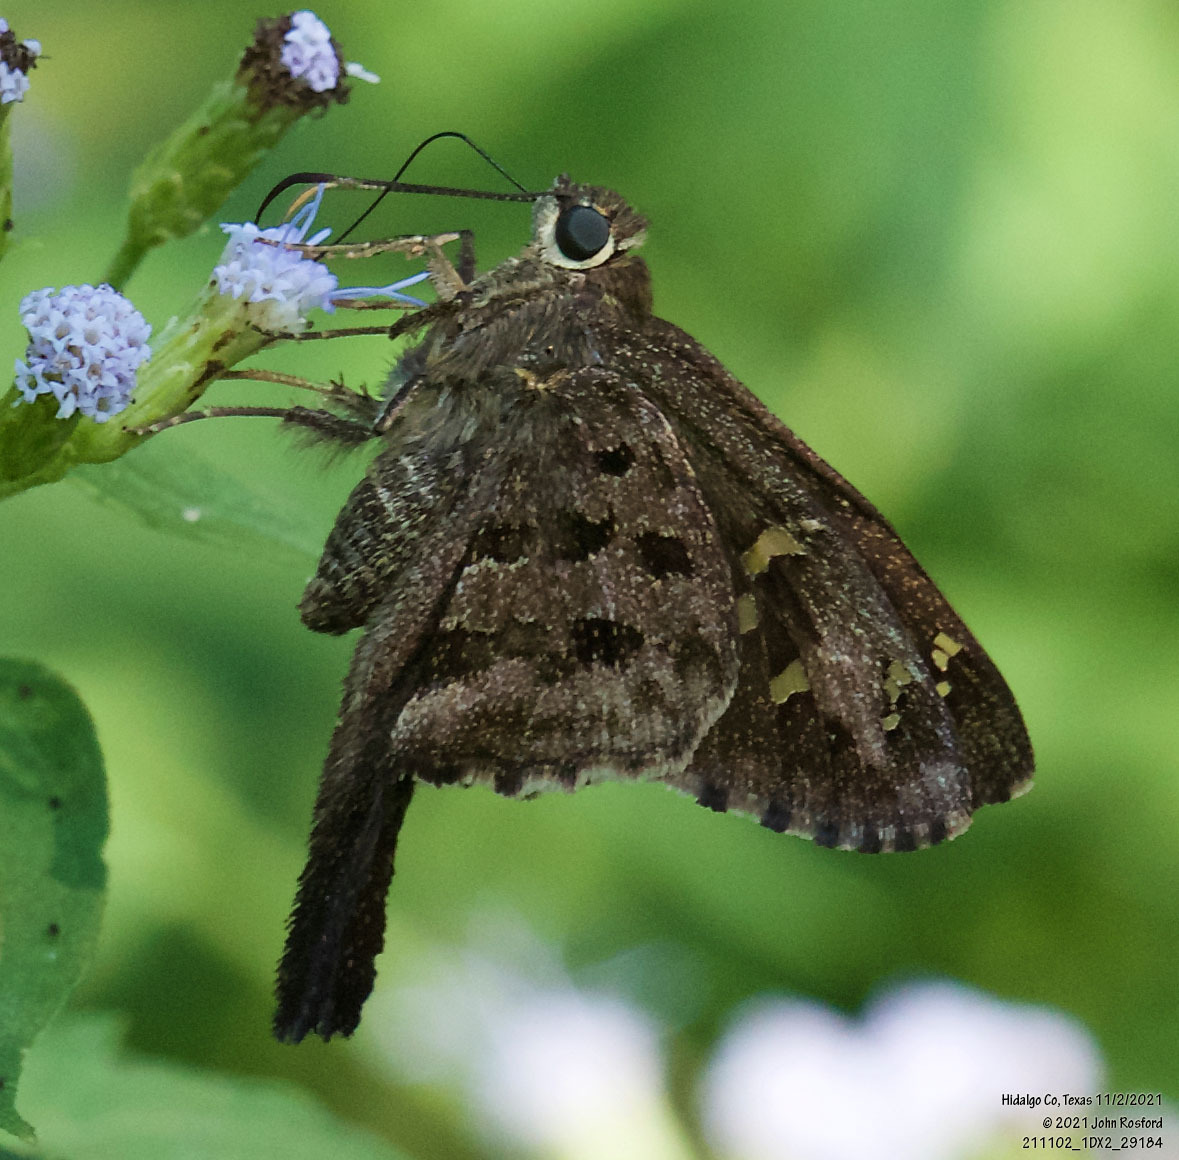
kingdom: Animalia
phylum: Arthropoda
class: Insecta
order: Lepidoptera
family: Hesperiidae
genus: Thorybes
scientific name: Thorybes
